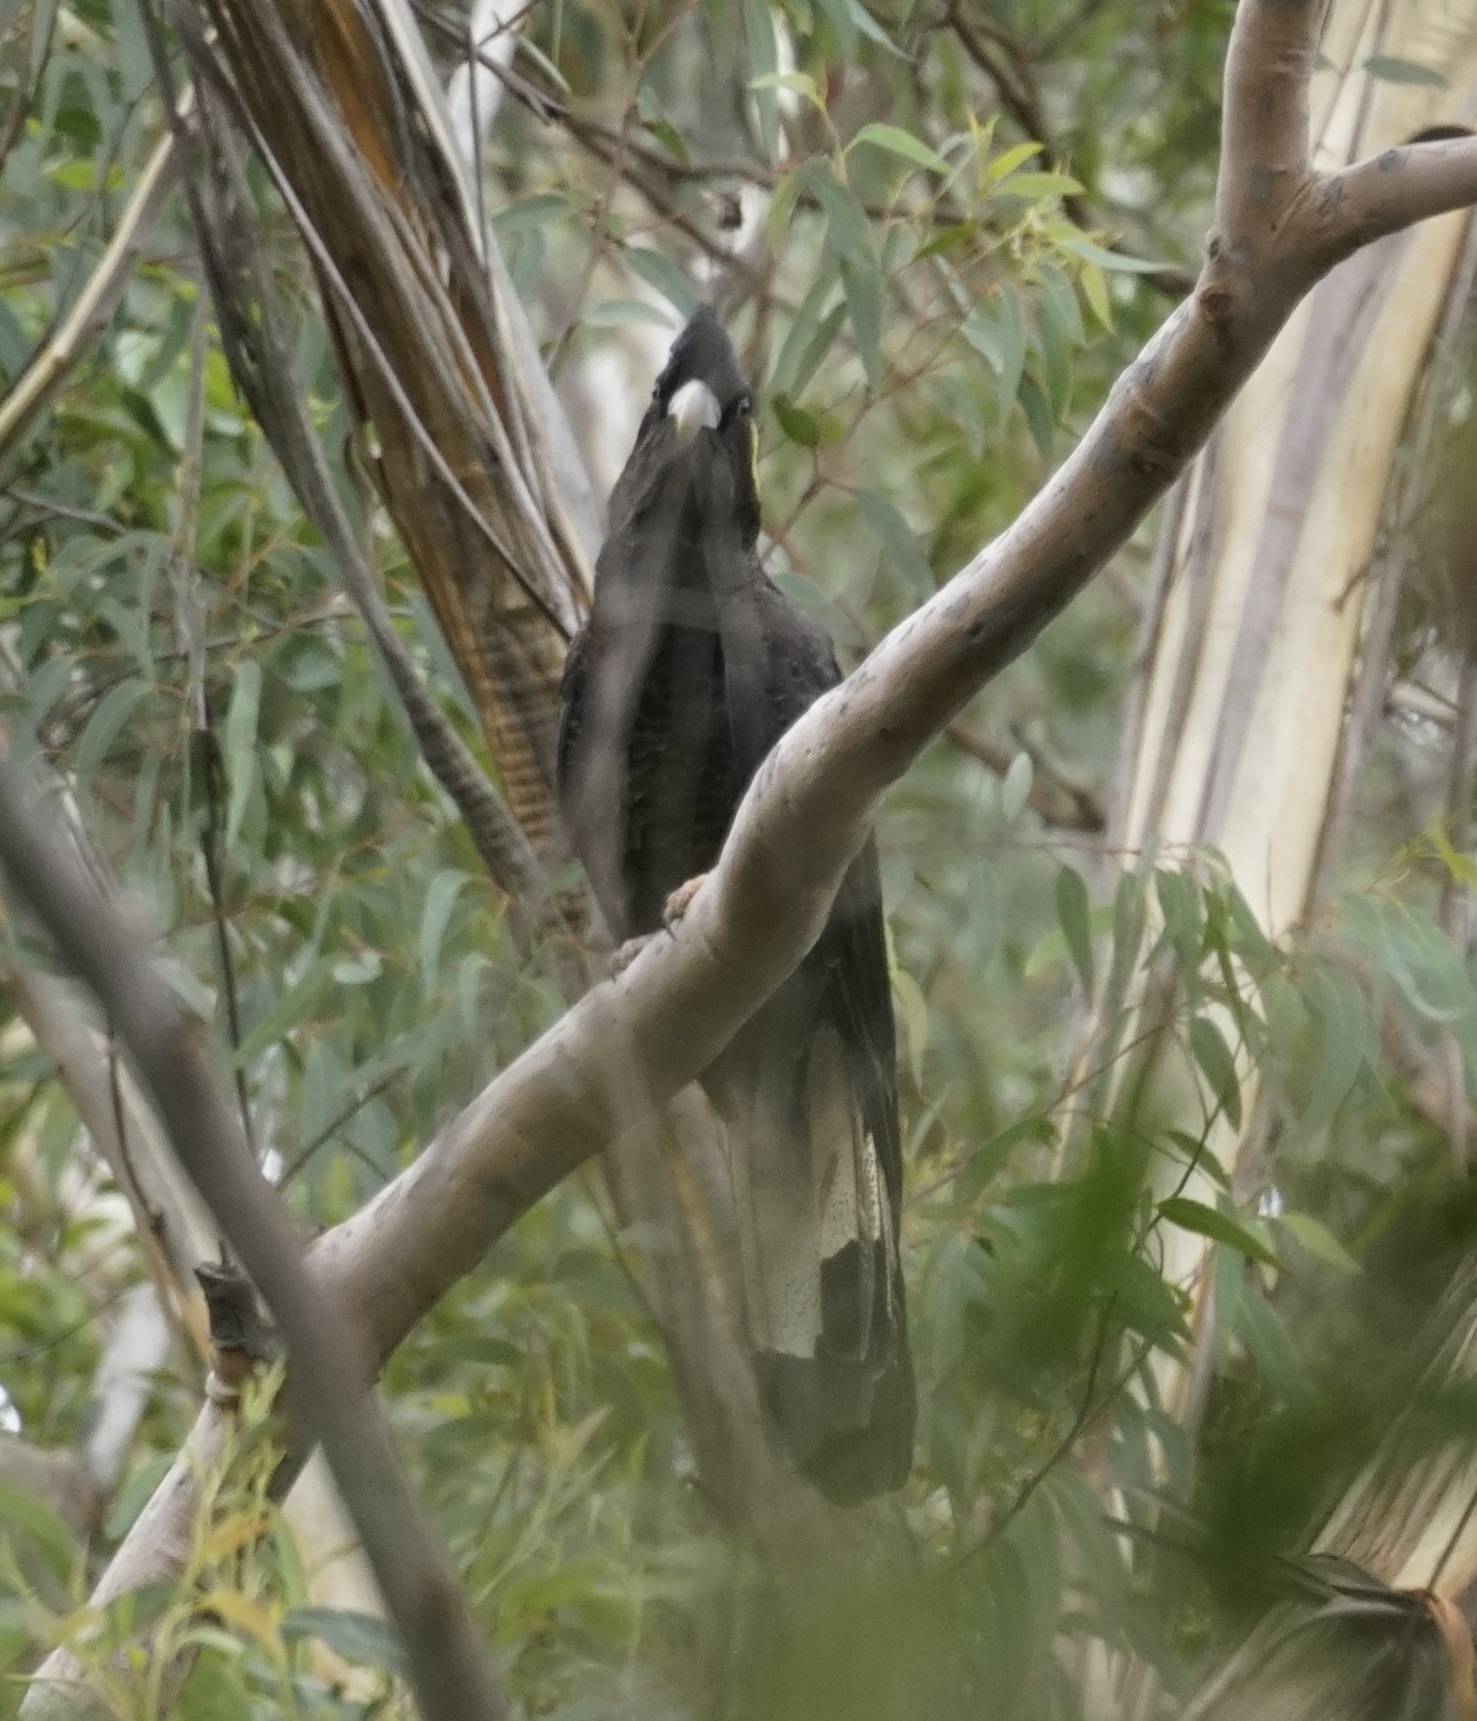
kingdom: Animalia
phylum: Chordata
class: Aves
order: Psittaciformes
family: Cacatuidae
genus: Zanda
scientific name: Zanda funerea
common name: Yellow-tailed black-cockatoo
